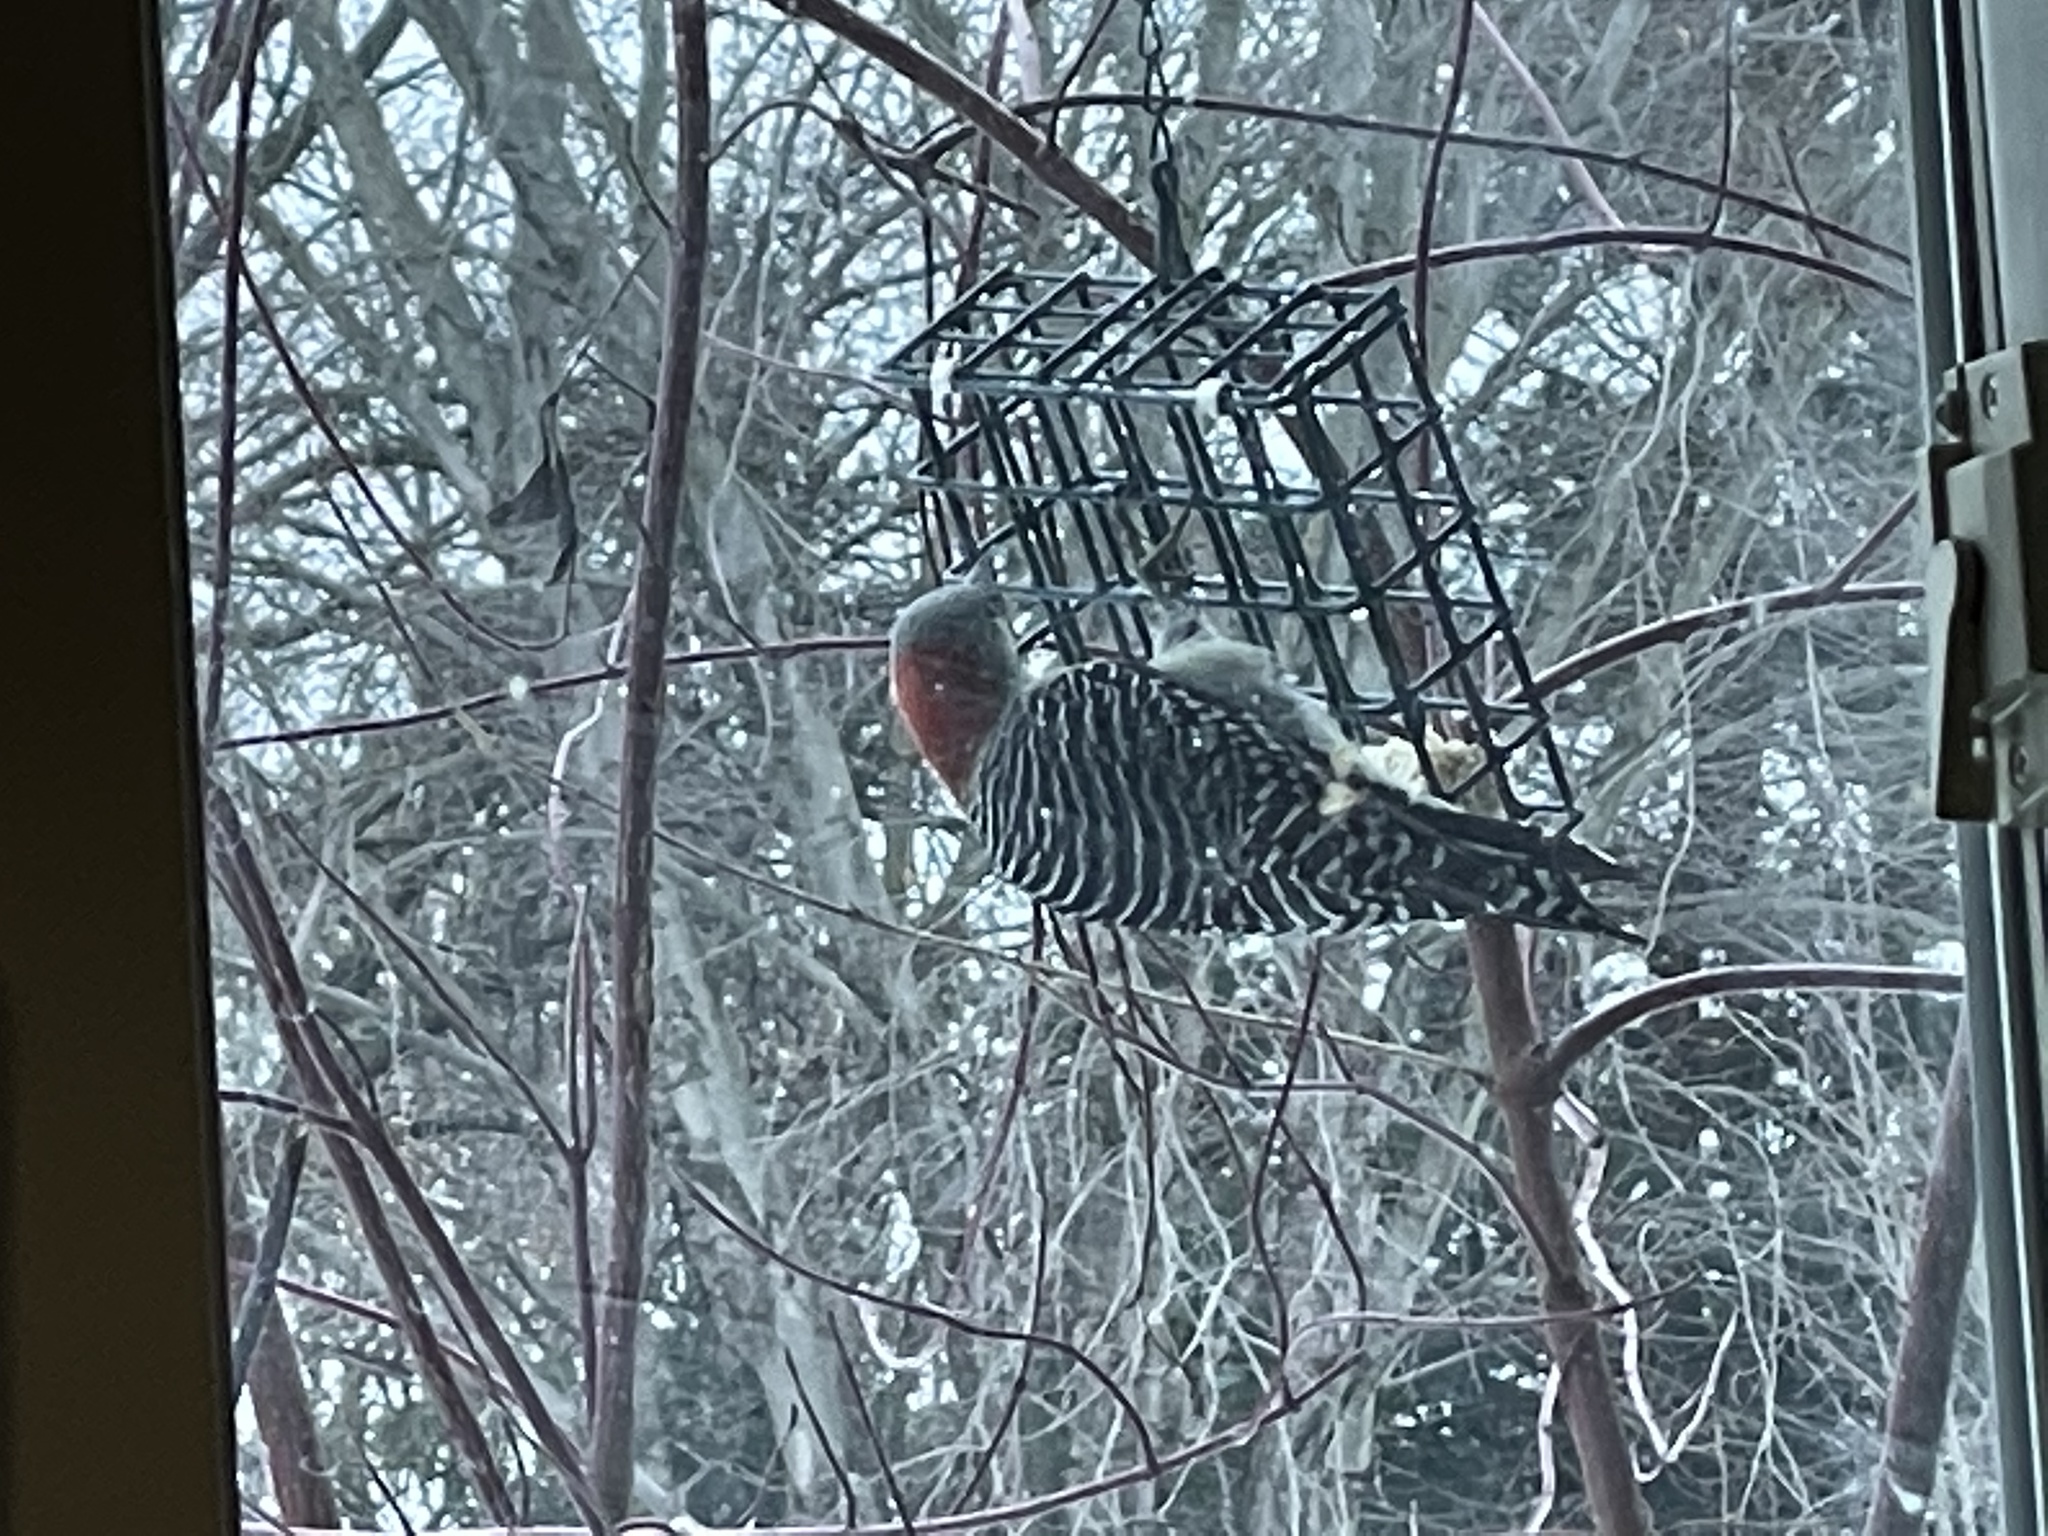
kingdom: Animalia
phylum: Chordata
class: Aves
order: Piciformes
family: Picidae
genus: Melanerpes
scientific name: Melanerpes carolinus
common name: Red-bellied woodpecker
